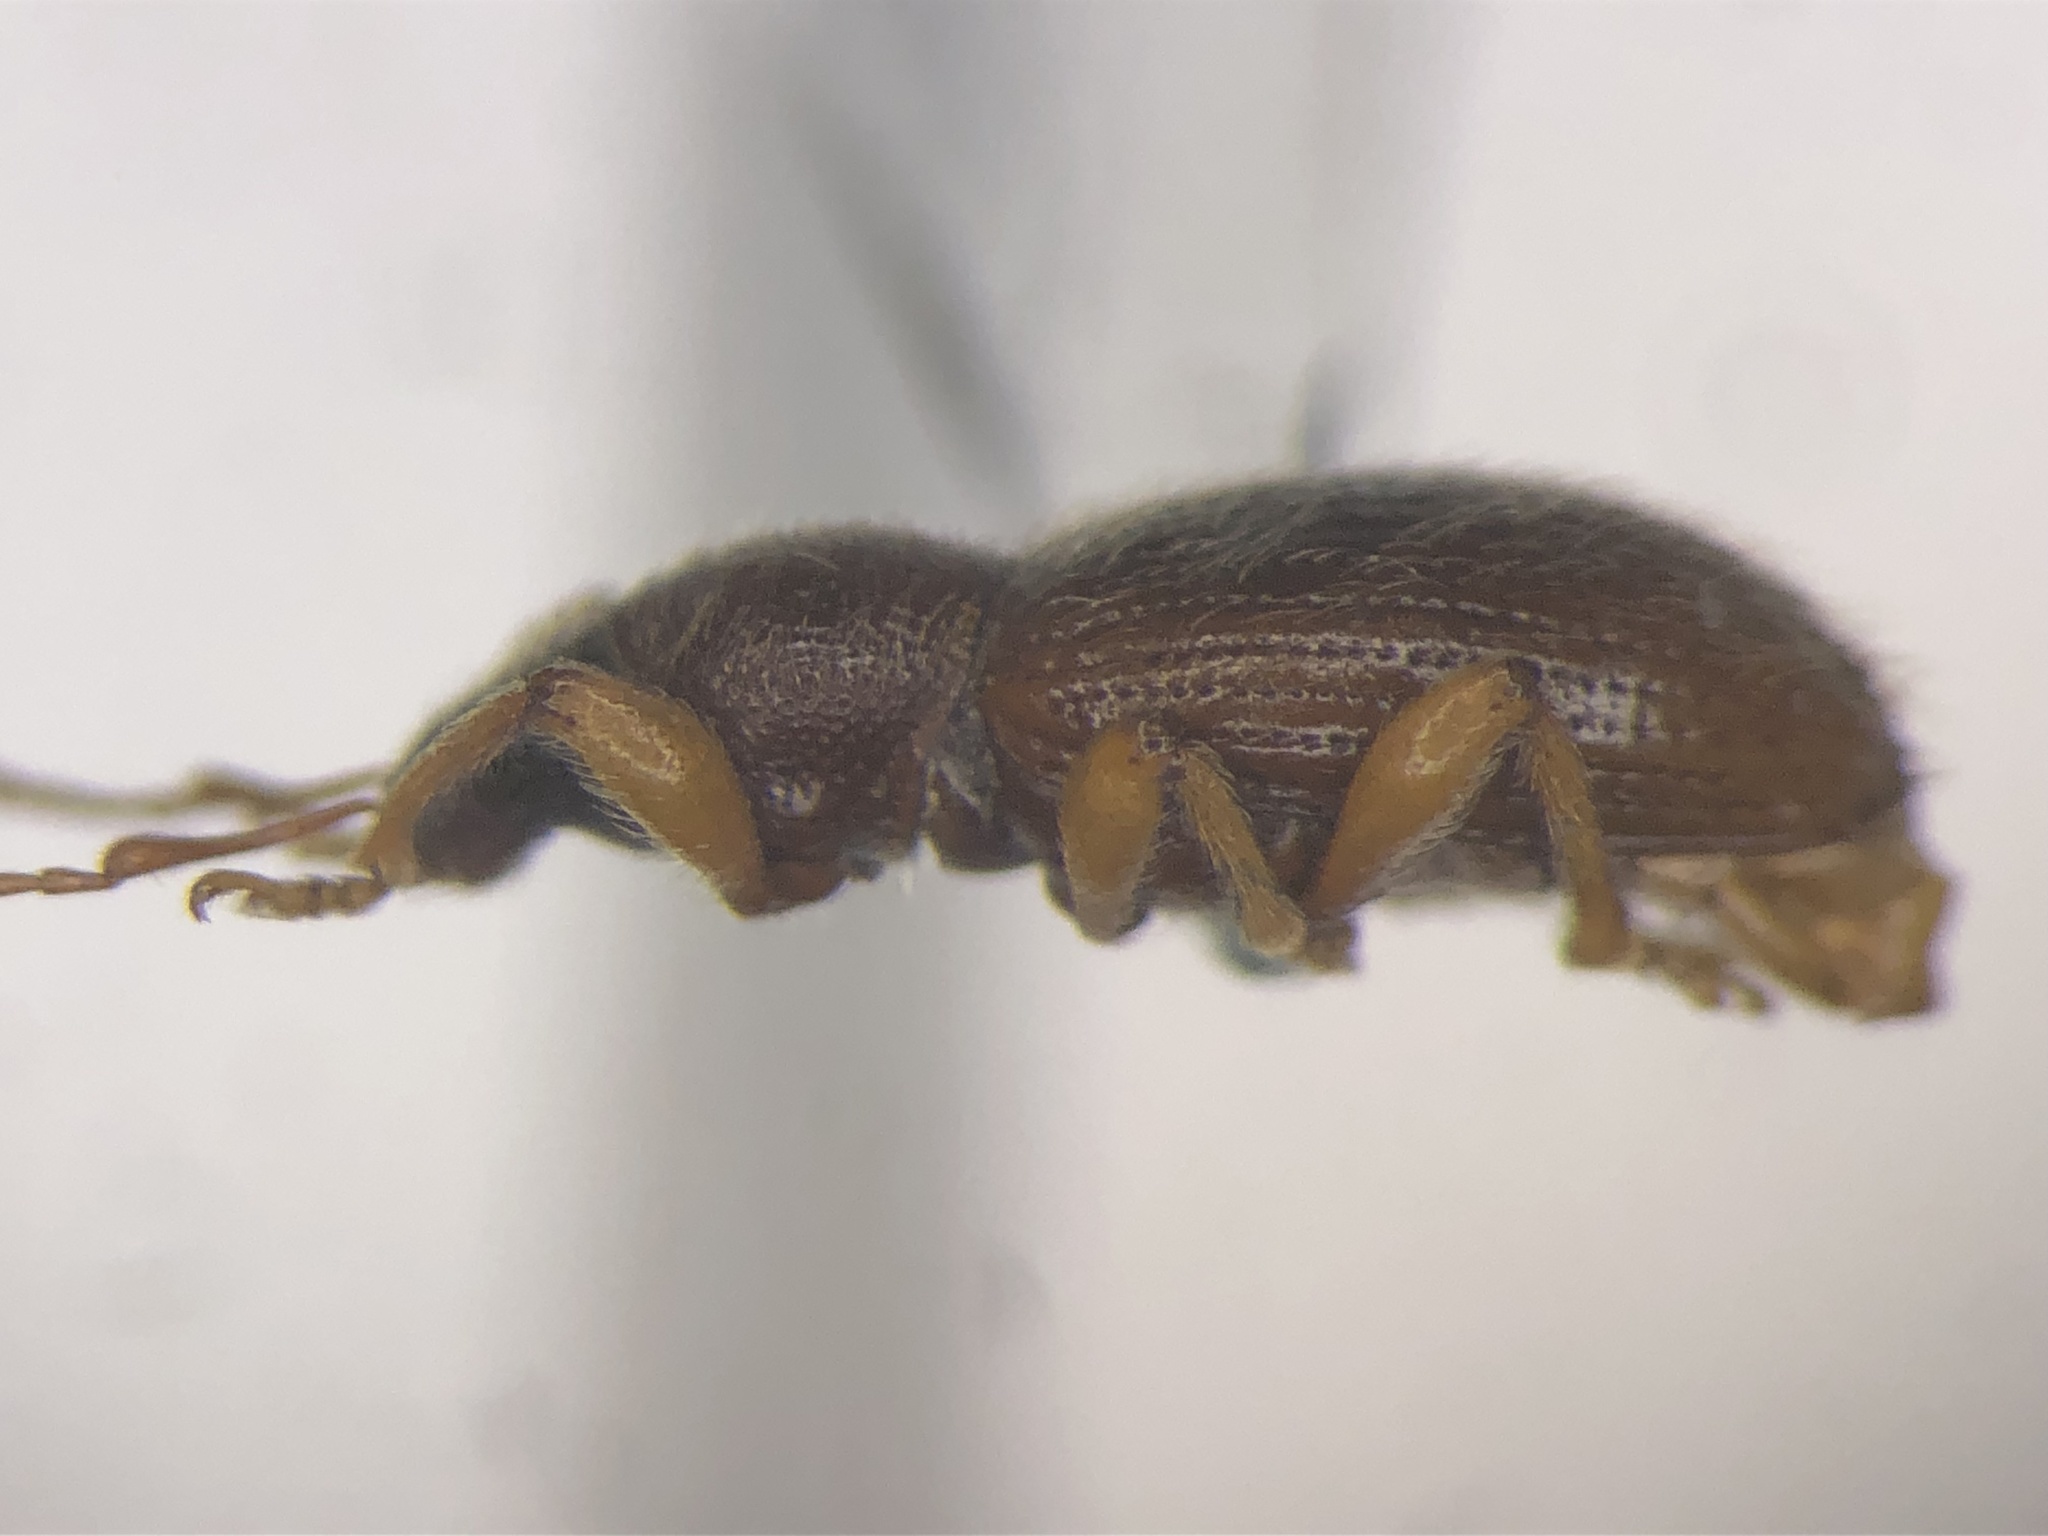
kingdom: Animalia
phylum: Arthropoda
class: Insecta
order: Coleoptera
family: Curculionidae
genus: Exomias
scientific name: Exomias pellucidus
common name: Hairy spider weevil
